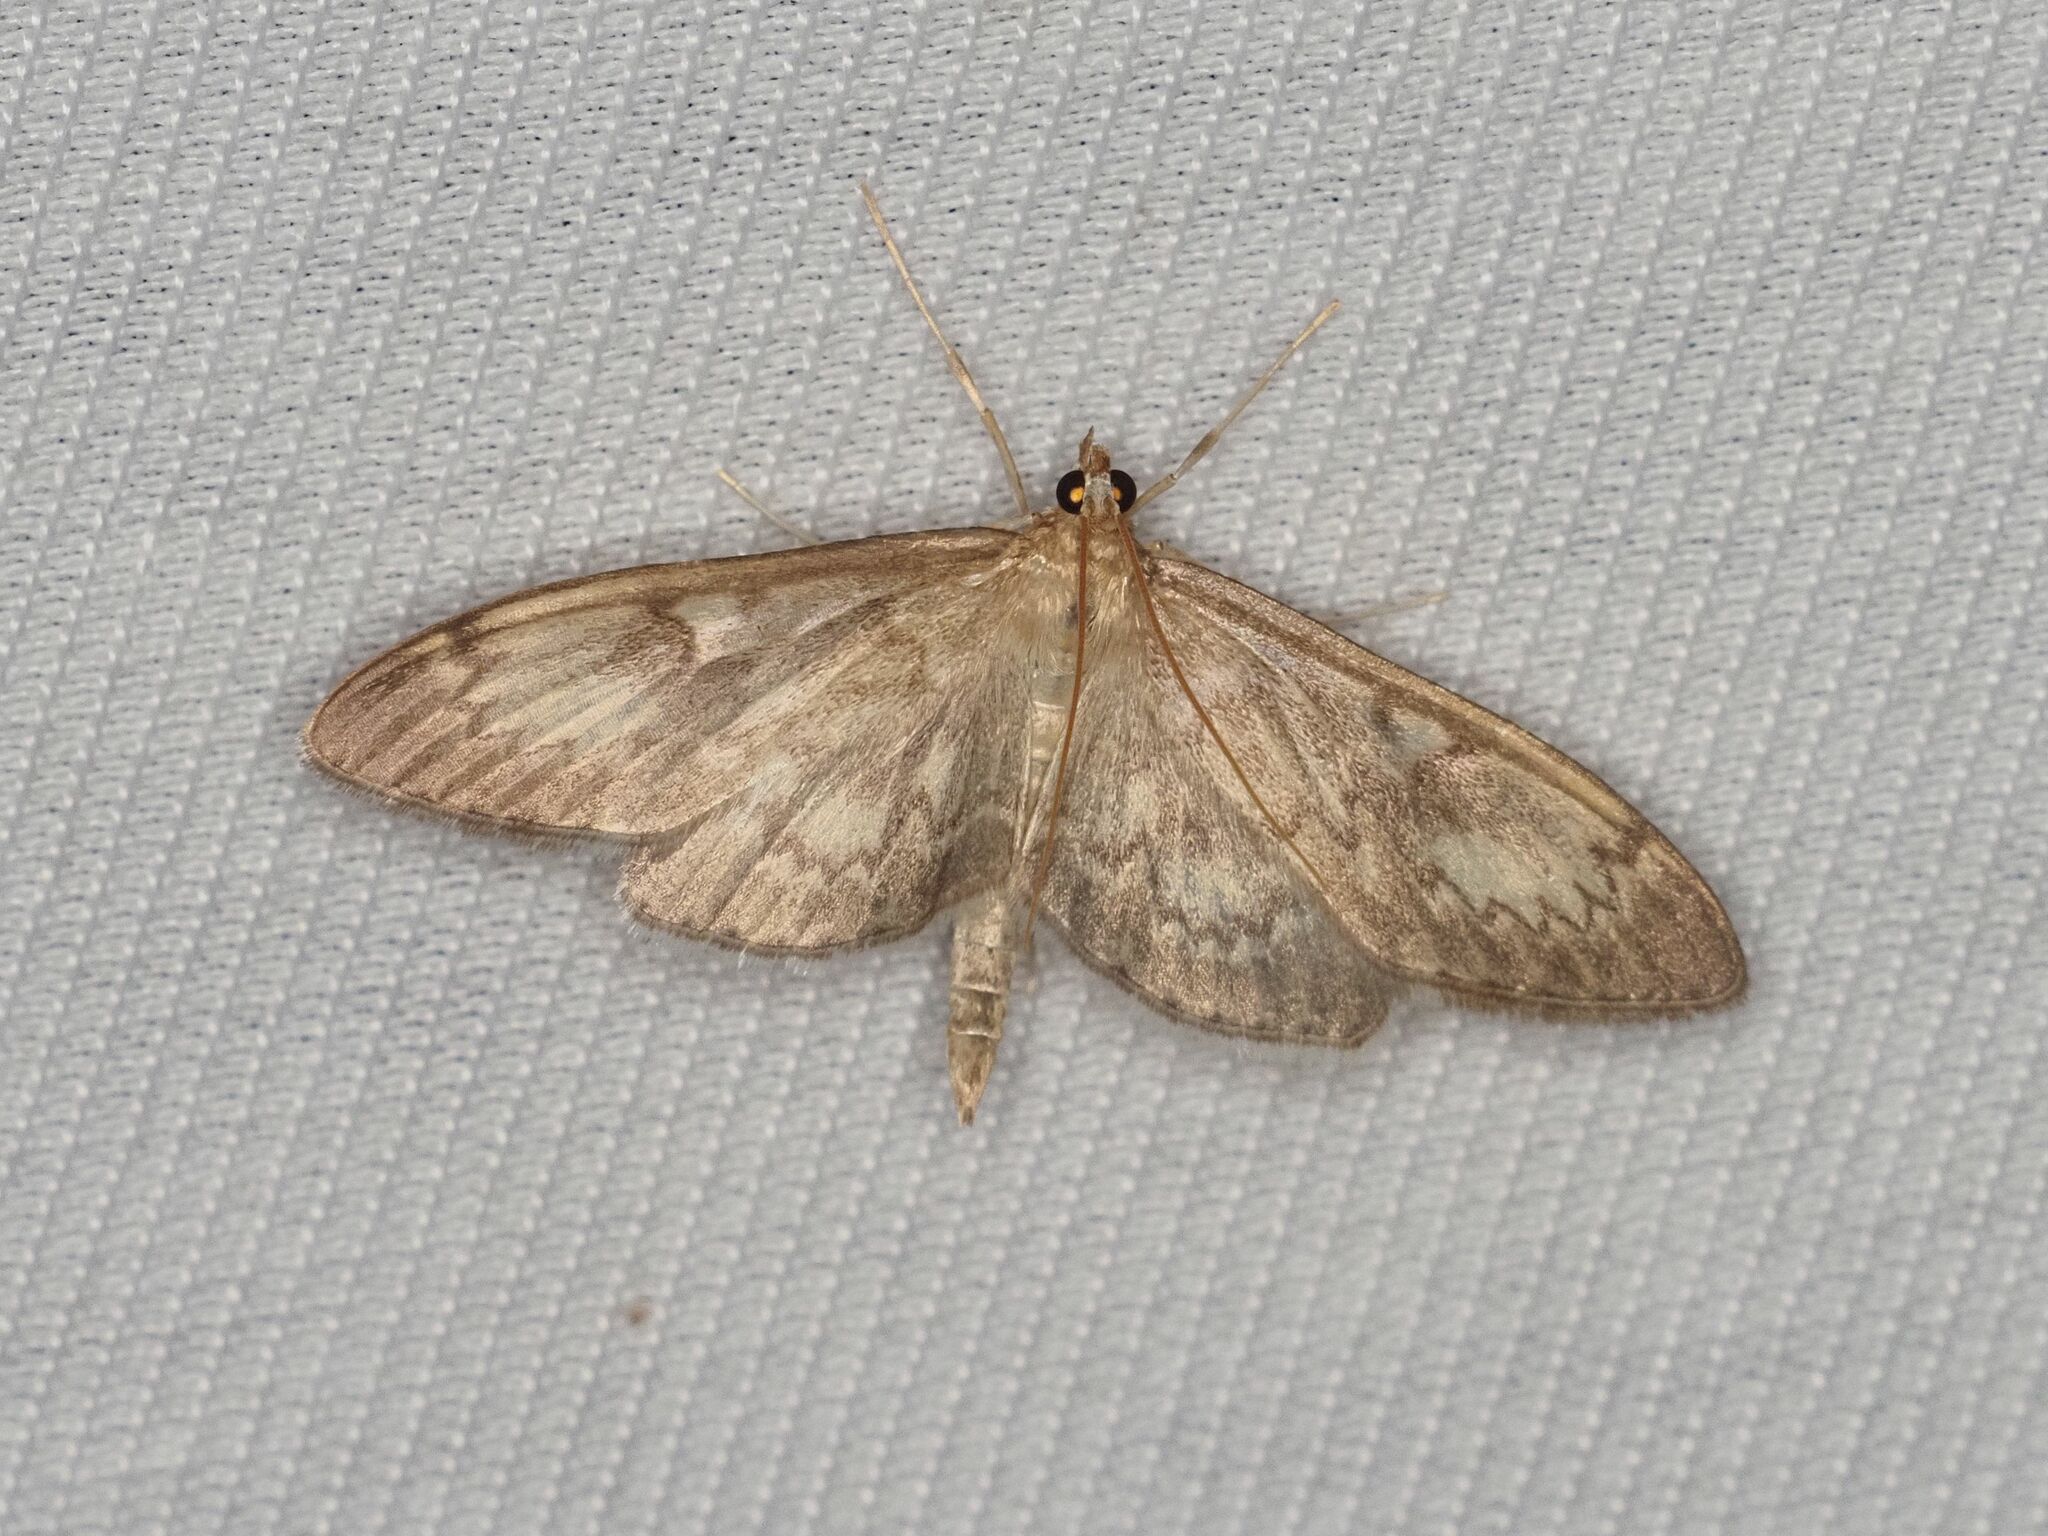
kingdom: Animalia
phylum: Arthropoda
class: Insecta
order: Lepidoptera
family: Crambidae
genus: Anania
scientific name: Anania lancealis
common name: Long-winged pearl
